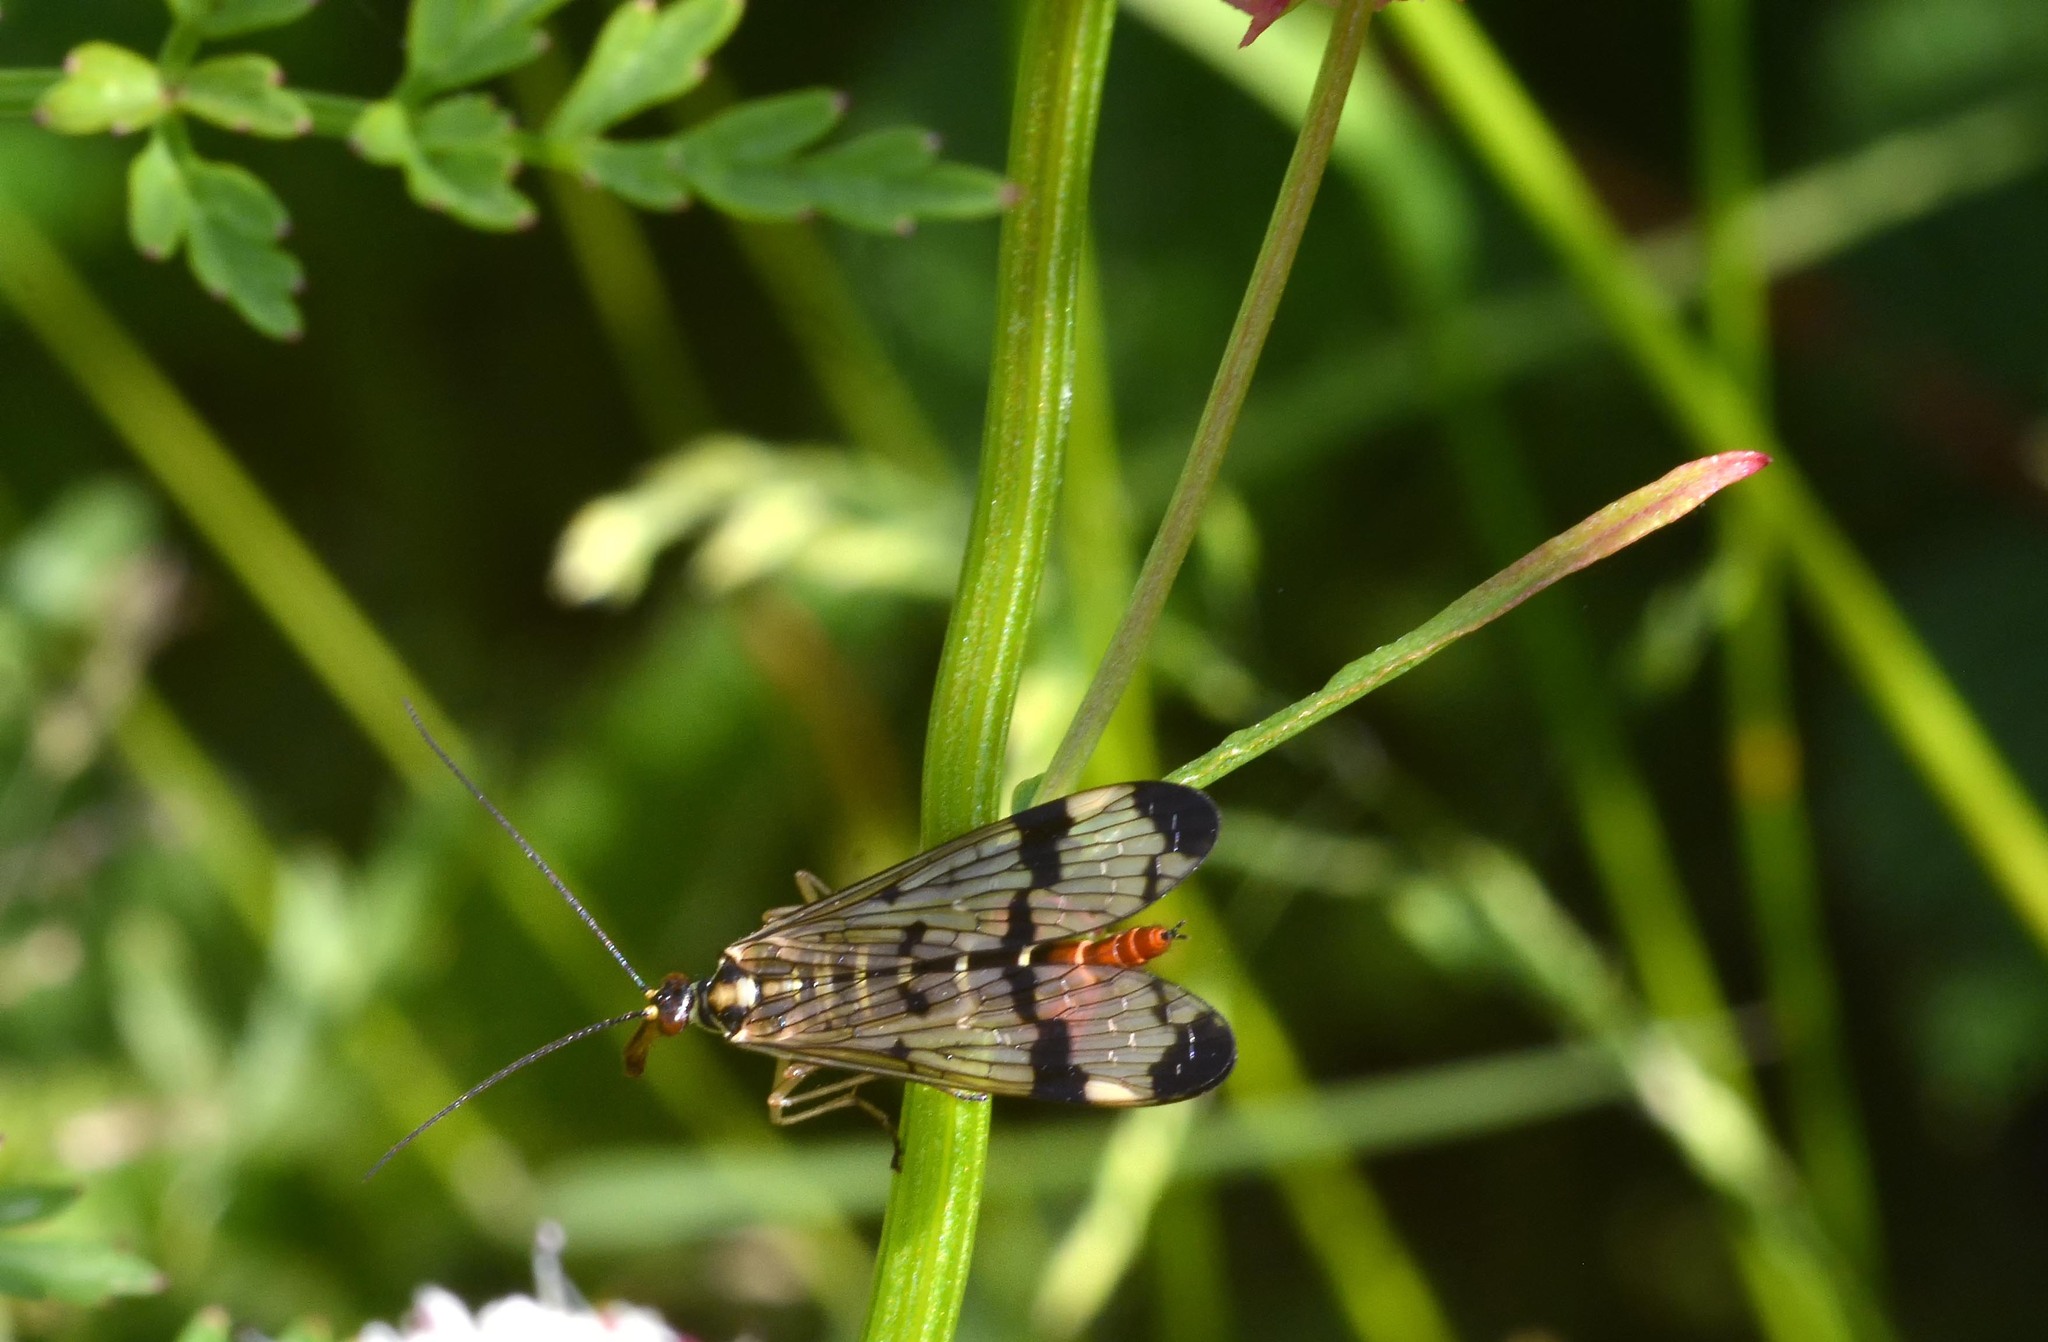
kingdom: Animalia
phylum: Arthropoda
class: Insecta
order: Mecoptera
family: Panorpidae
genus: Panorpa
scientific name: Panorpa
